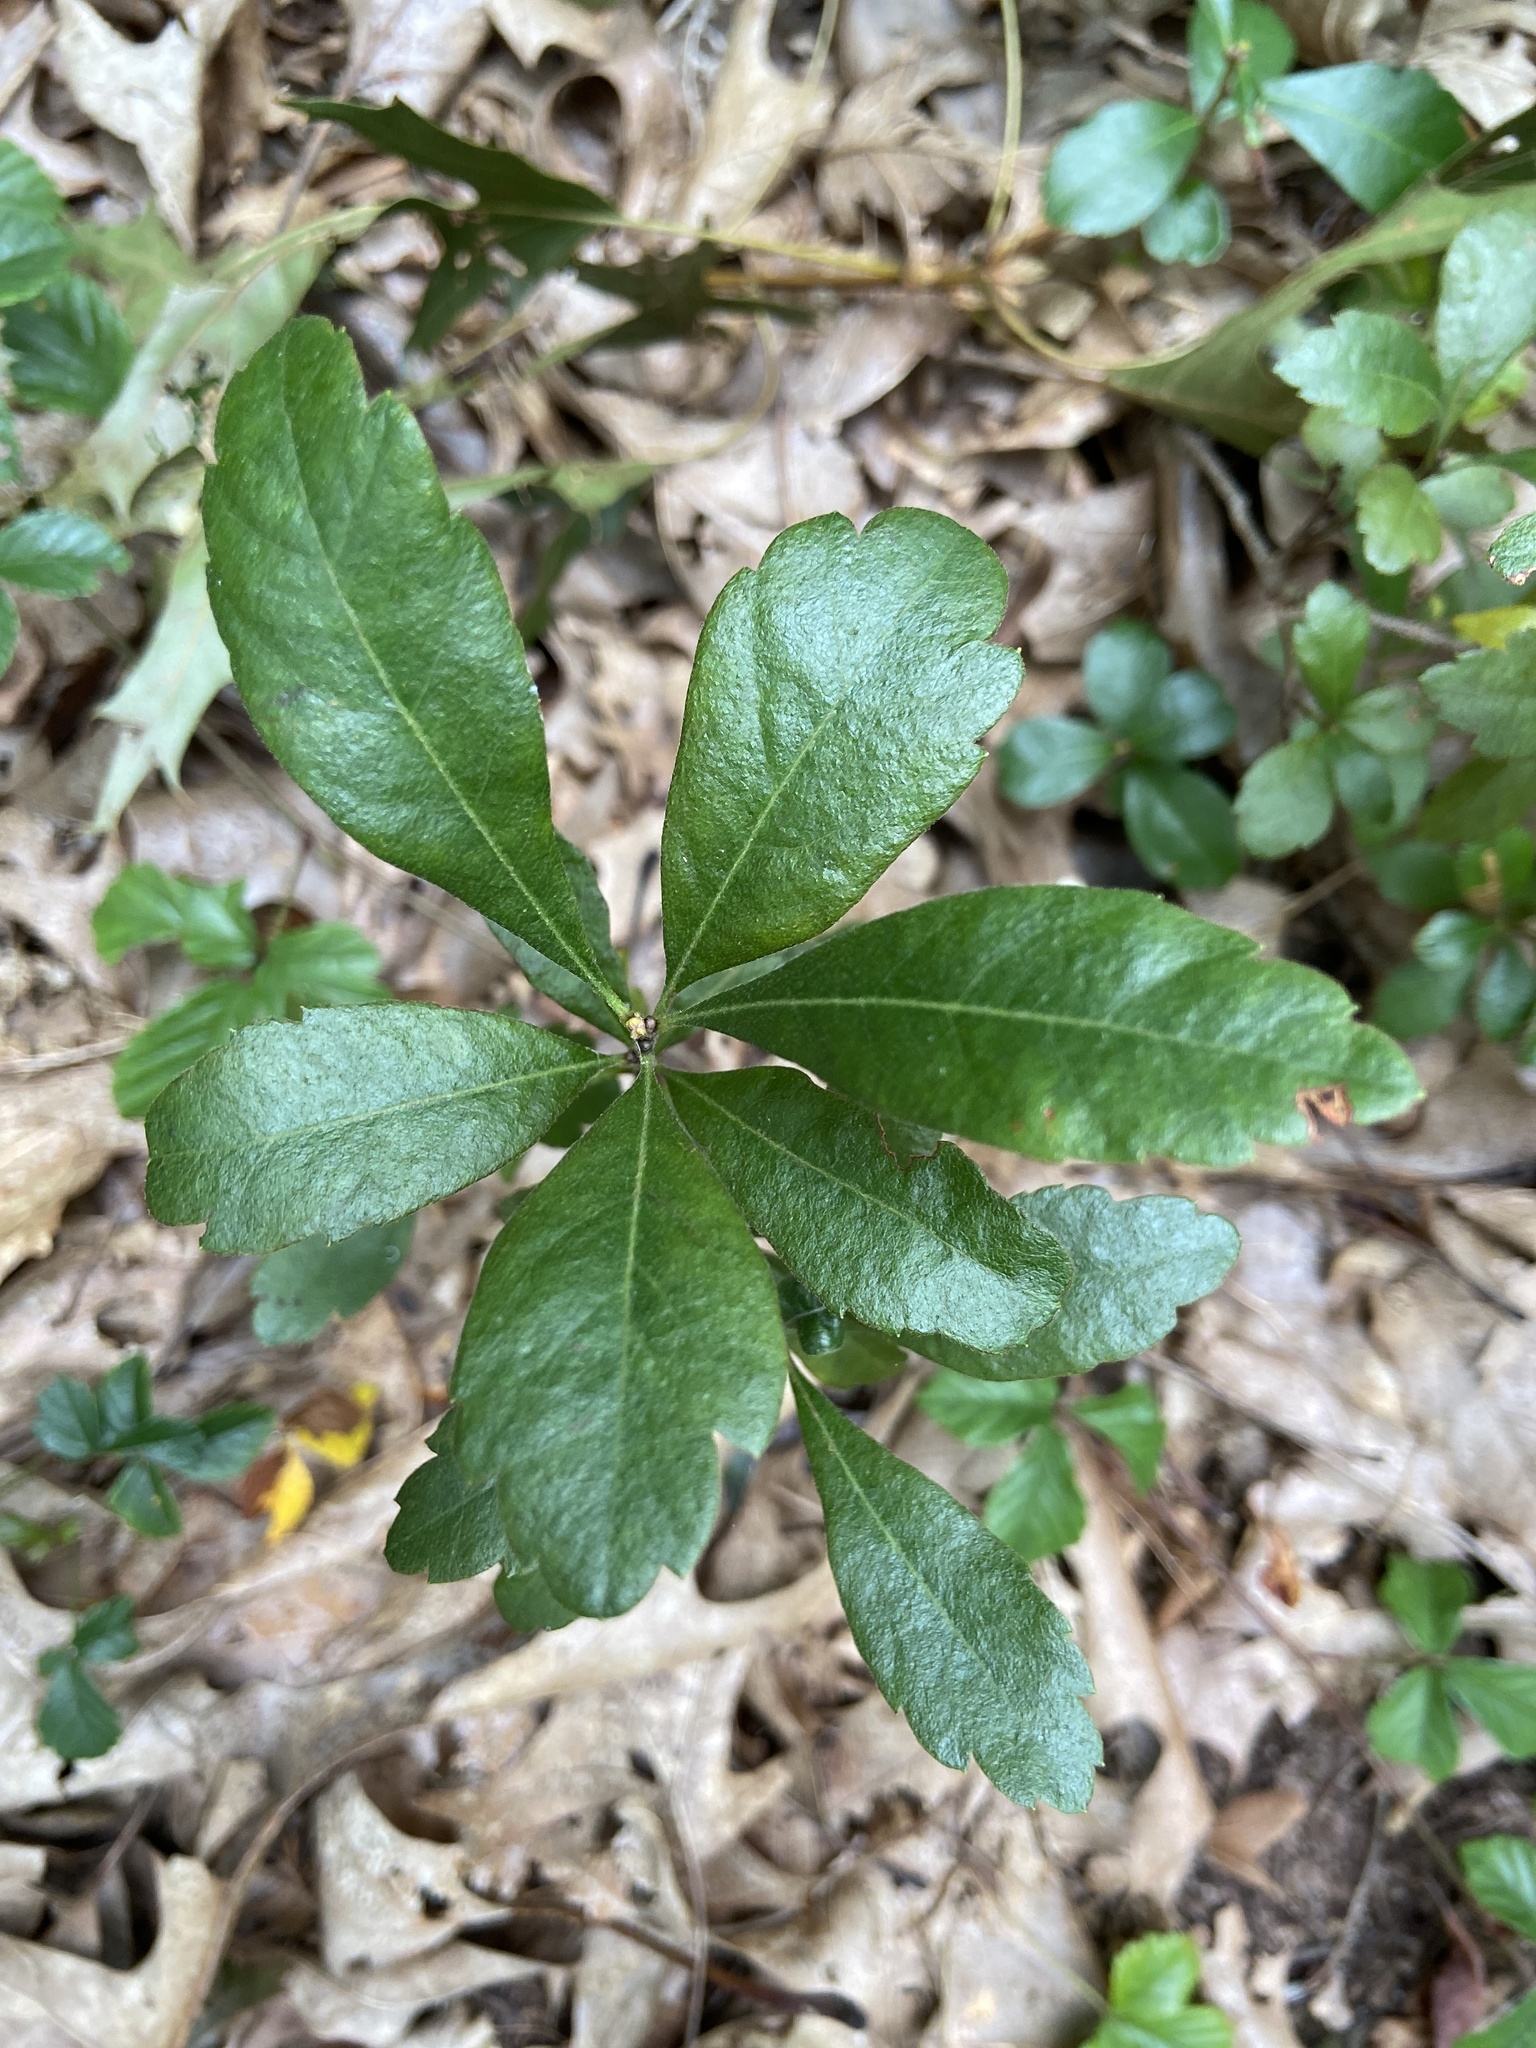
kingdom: Plantae
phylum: Tracheophyta
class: Magnoliopsida
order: Fagales
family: Myricaceae
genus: Morella
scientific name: Morella pensylvanica
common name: Northern bayberry
